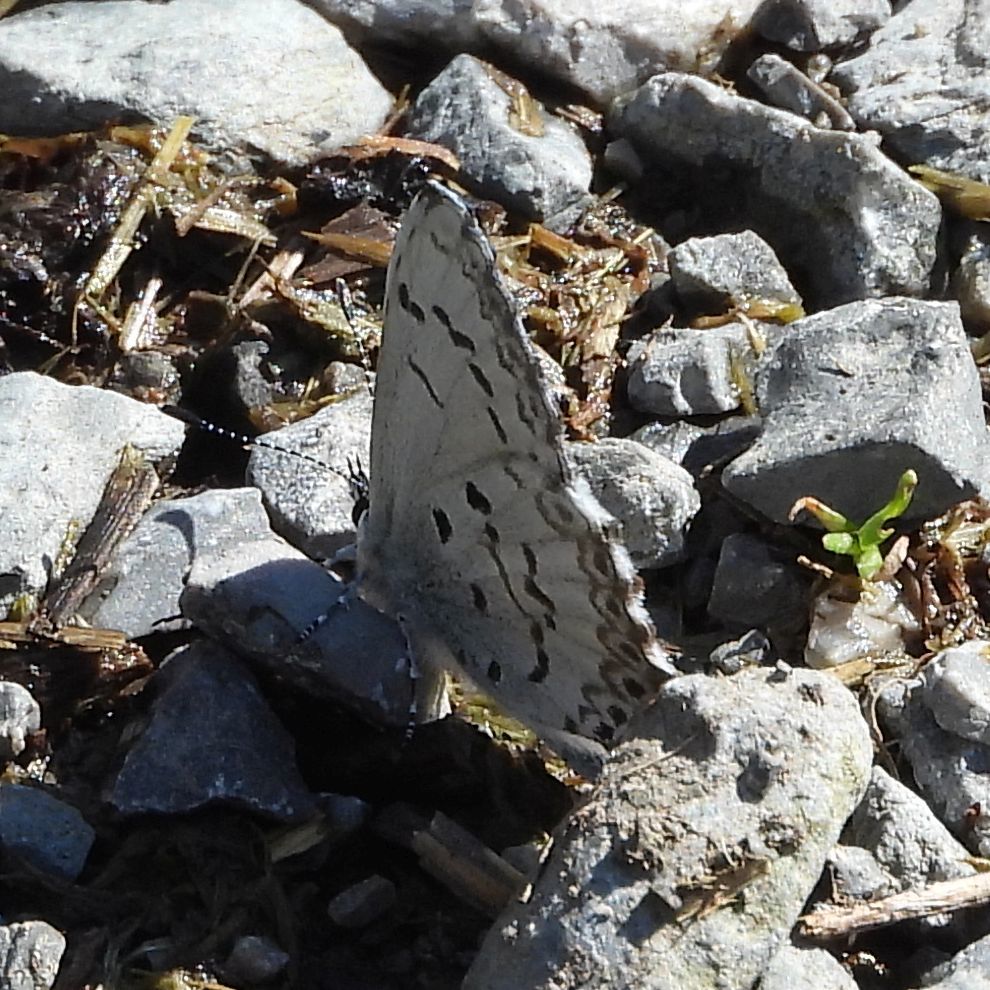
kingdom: Animalia
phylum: Arthropoda
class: Insecta
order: Lepidoptera
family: Lycaenidae
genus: Celastrina
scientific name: Celastrina lucia
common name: Lucia azure
